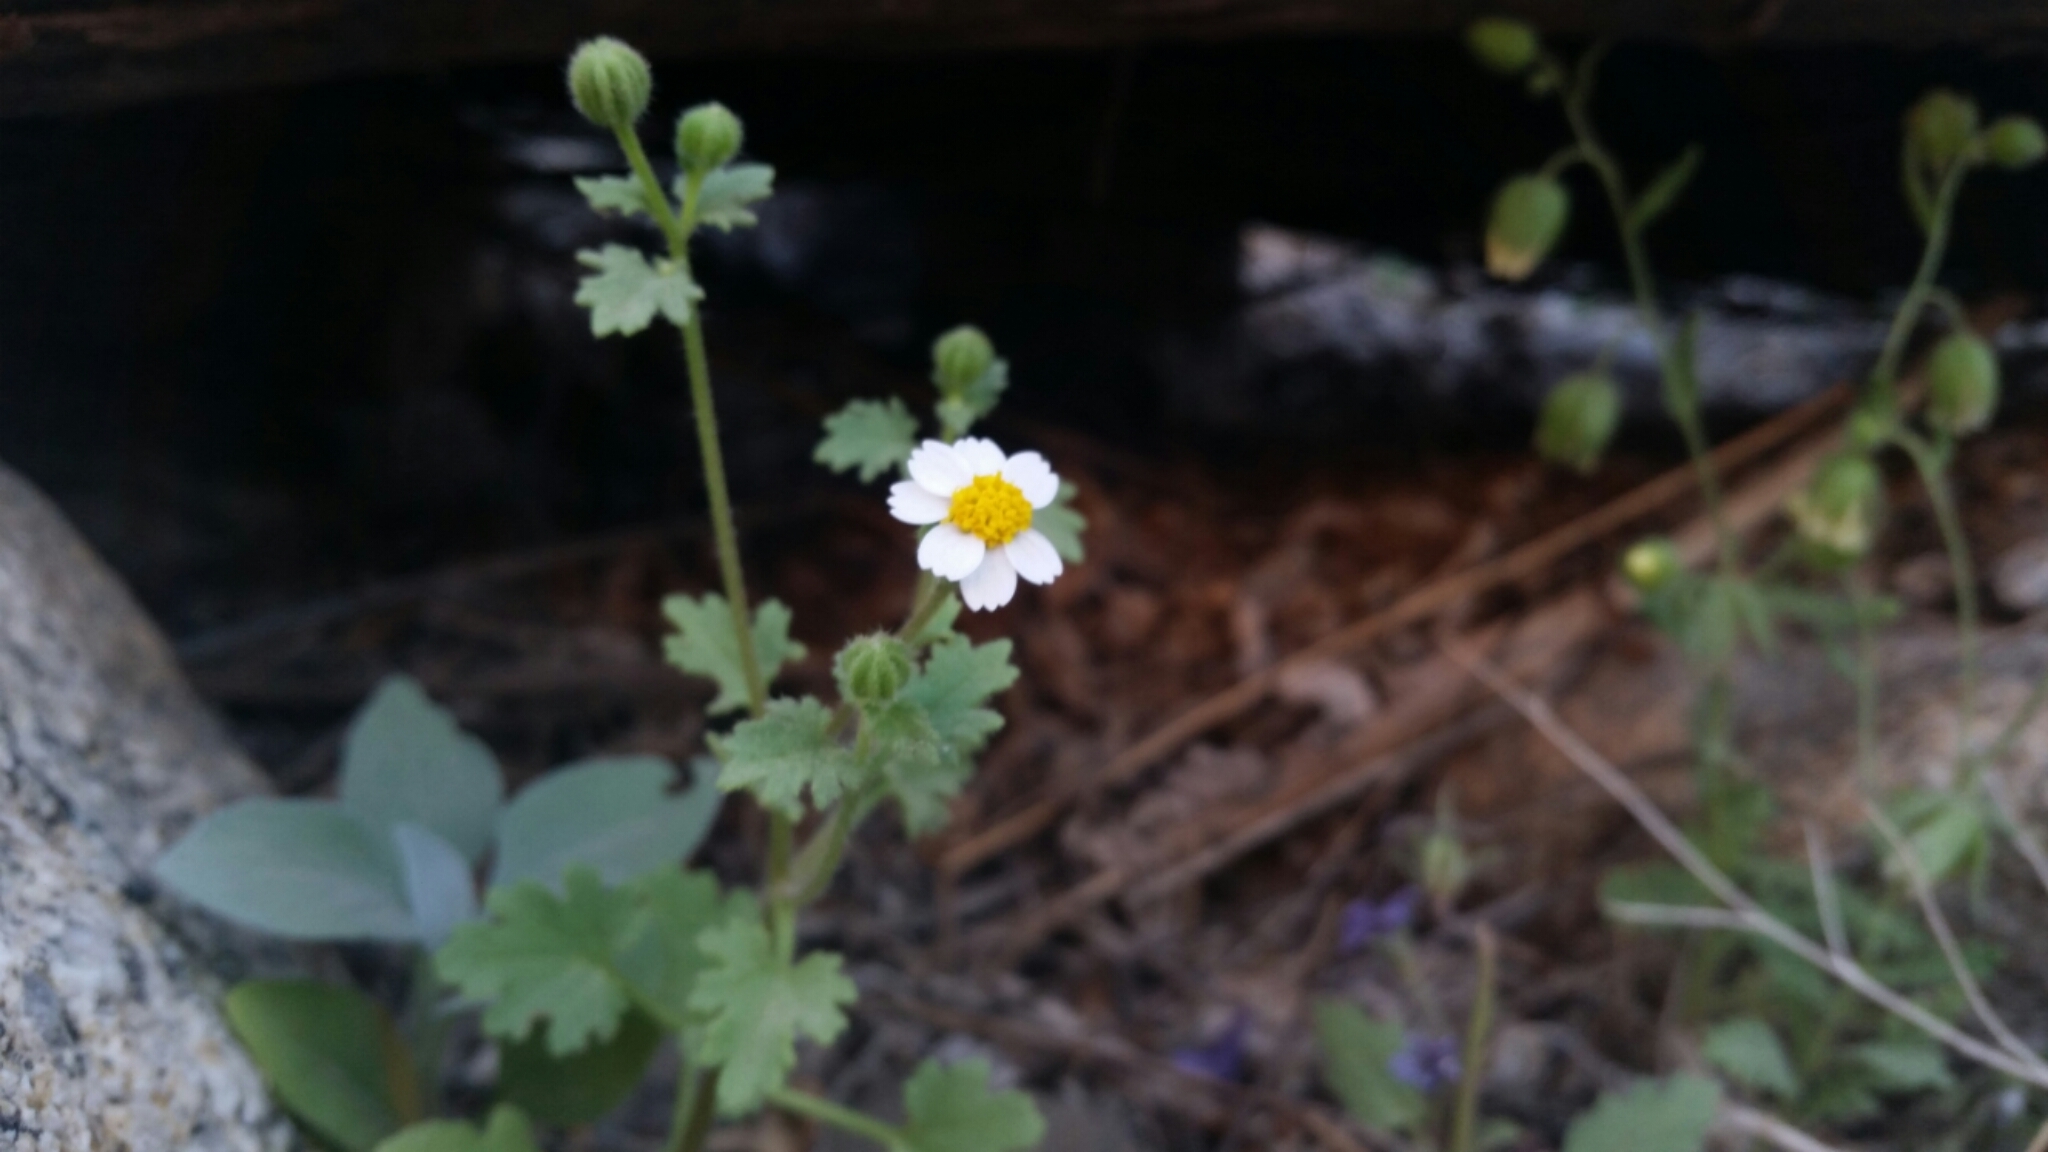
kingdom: Plantae
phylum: Tracheophyta
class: Magnoliopsida
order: Asterales
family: Asteraceae
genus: Laphamia
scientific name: Laphamia emoryi
